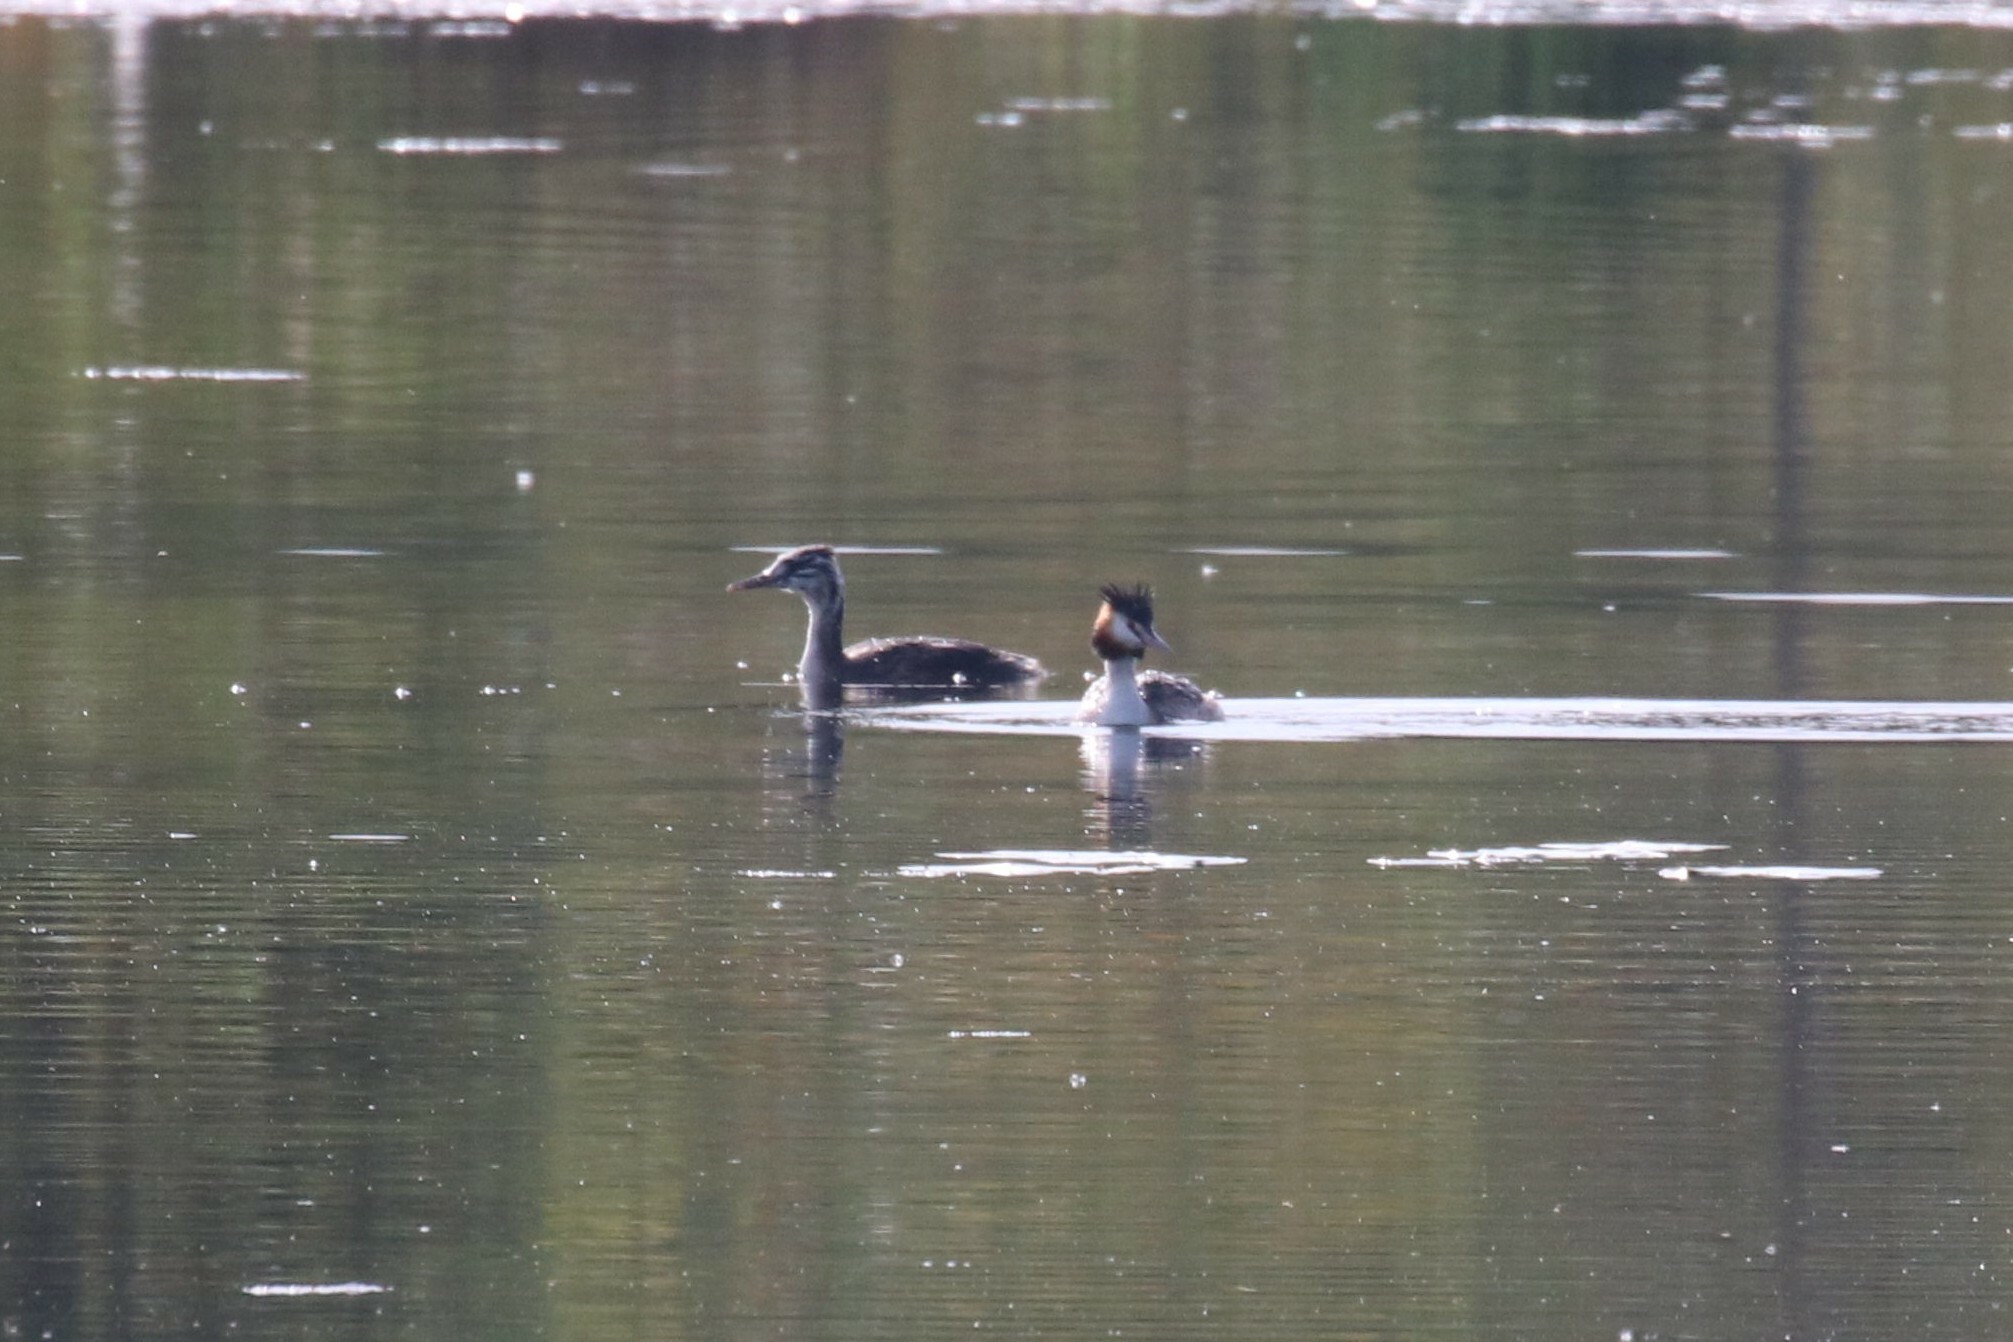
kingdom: Animalia
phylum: Chordata
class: Aves
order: Podicipediformes
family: Podicipedidae
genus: Podiceps
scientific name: Podiceps cristatus
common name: Great crested grebe
